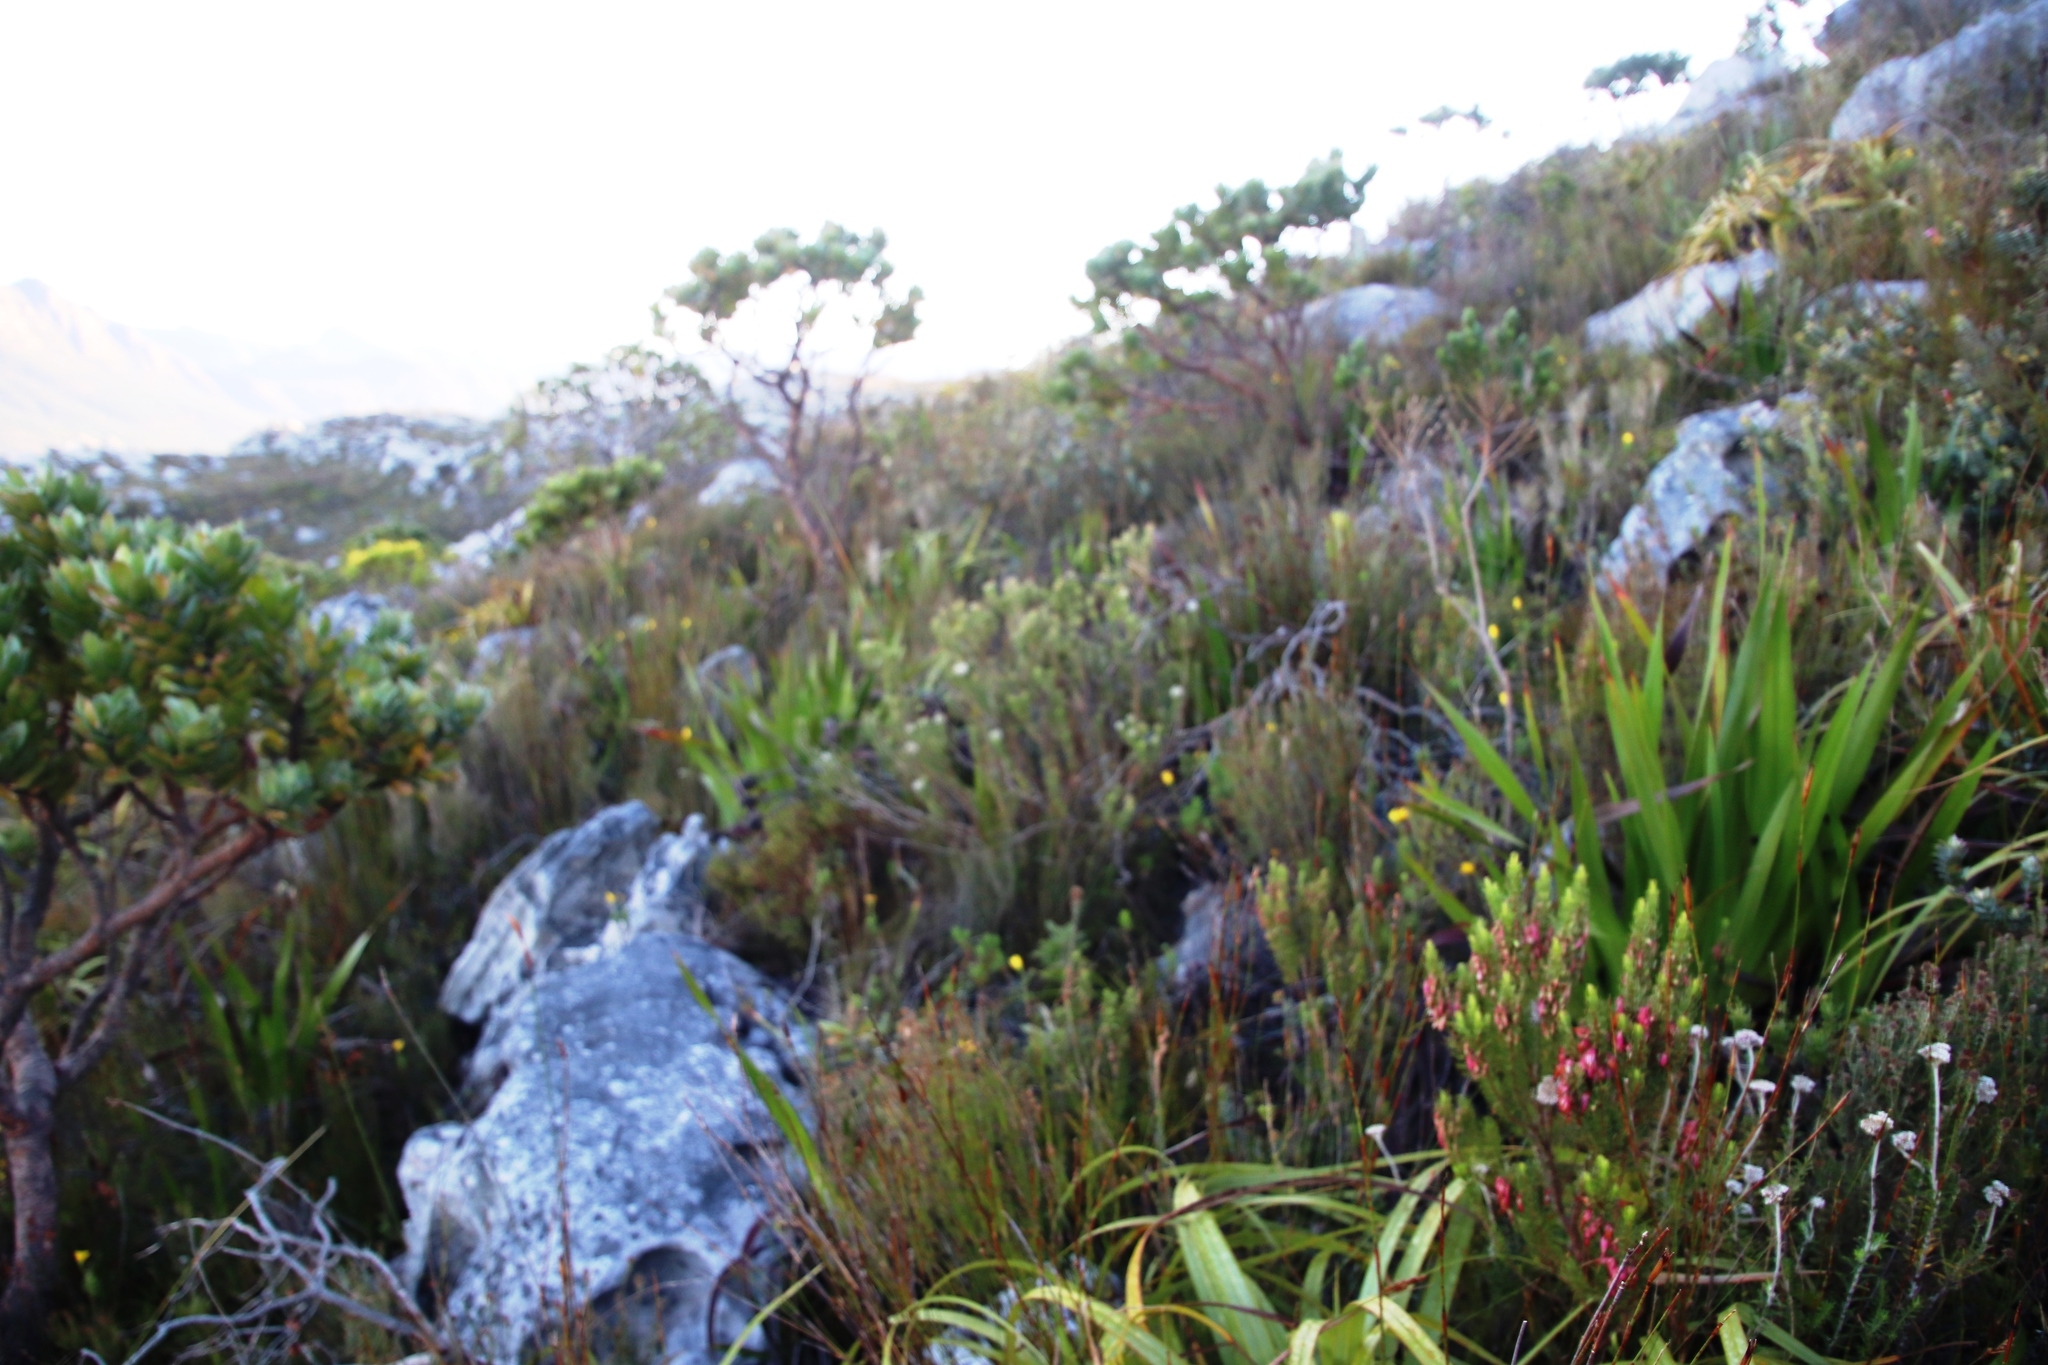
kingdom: Plantae
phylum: Tracheophyta
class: Magnoliopsida
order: Lamiales
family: Stilbaceae
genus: Stilbe
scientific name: Stilbe vestita
